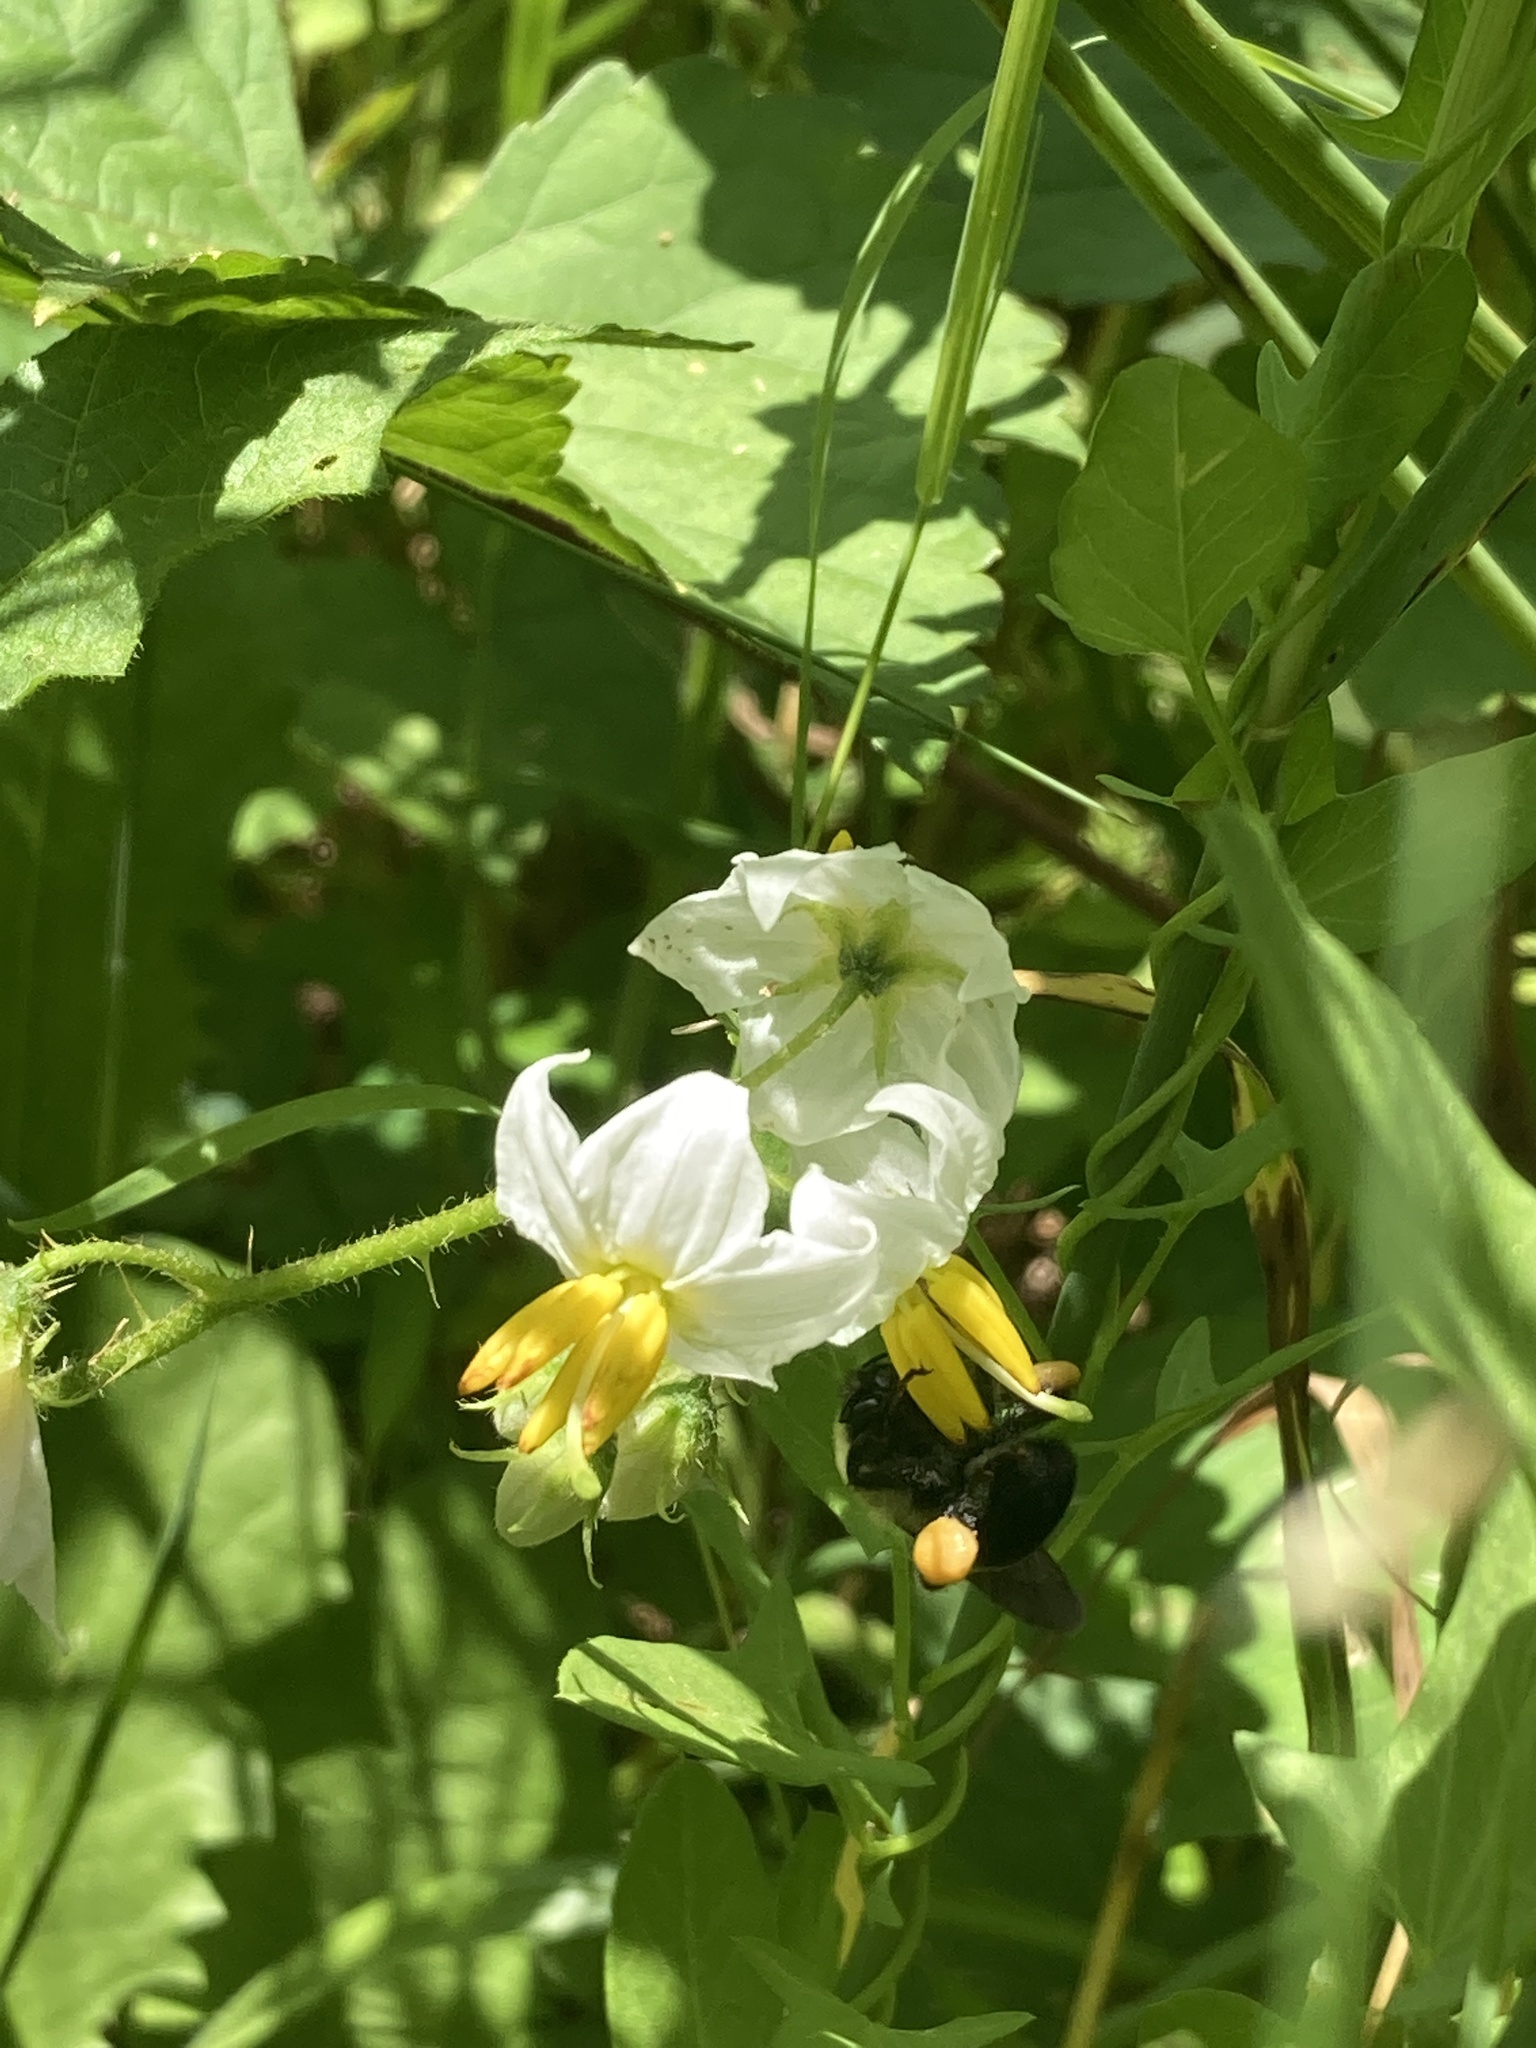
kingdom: Animalia
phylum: Arthropoda
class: Insecta
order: Hymenoptera
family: Apidae
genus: Bombus
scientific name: Bombus griseocollis
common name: Brown-belted bumble bee
